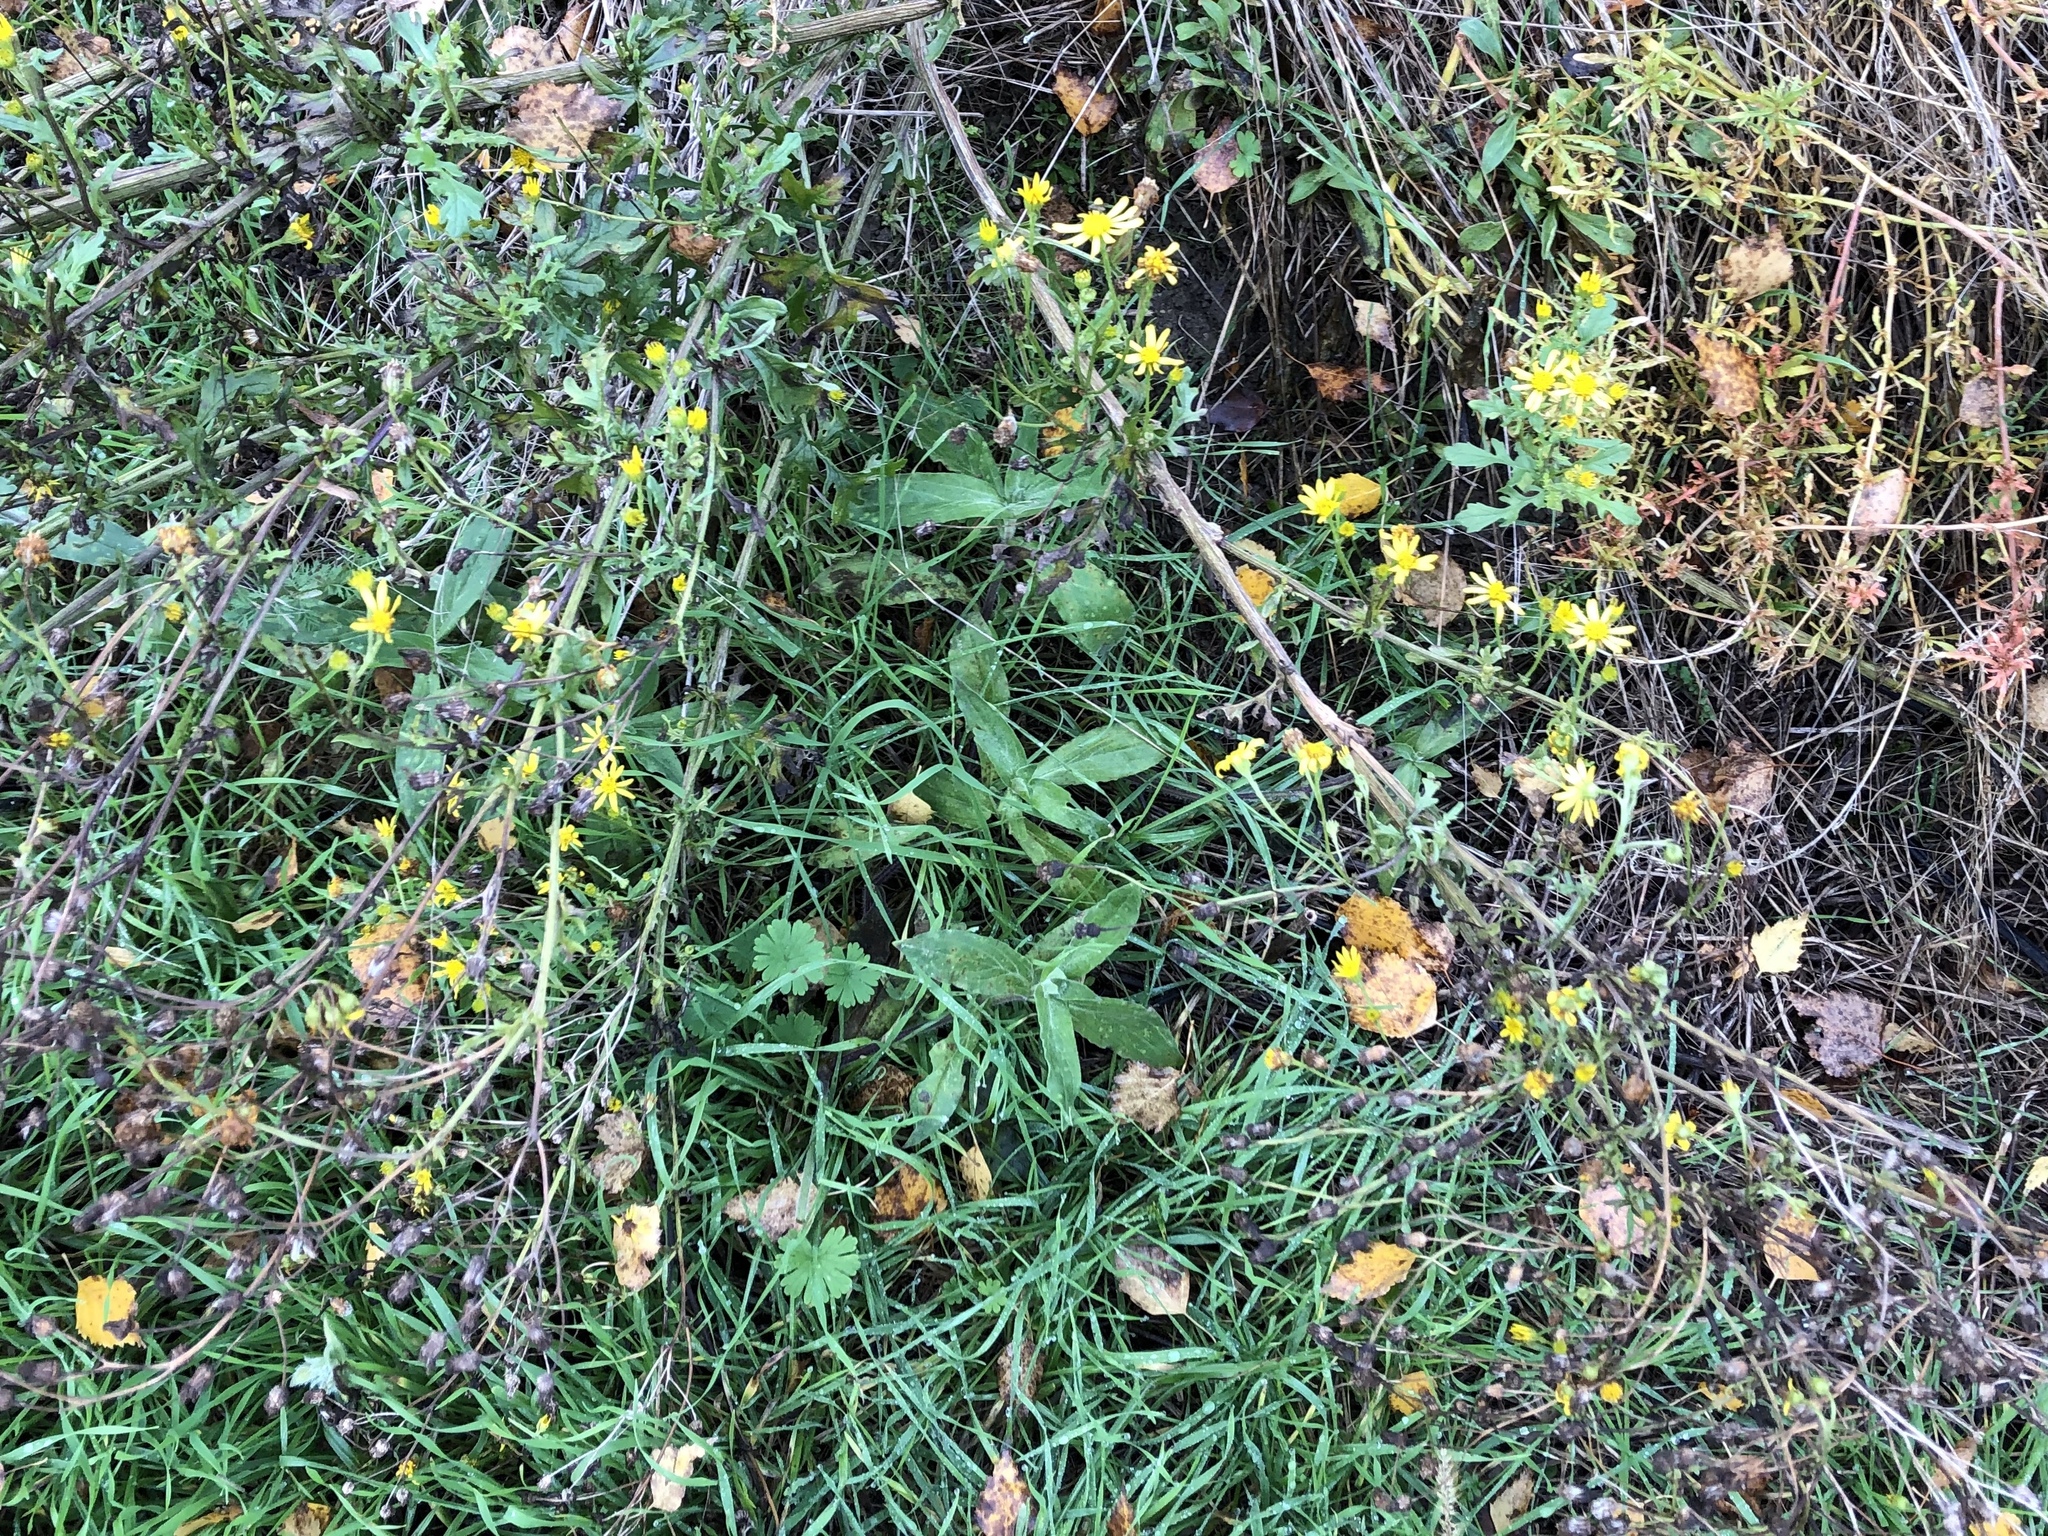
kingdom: Plantae
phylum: Tracheophyta
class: Magnoliopsida
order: Asterales
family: Asteraceae
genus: Jacobaea
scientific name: Jacobaea vulgaris
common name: Stinking willie
